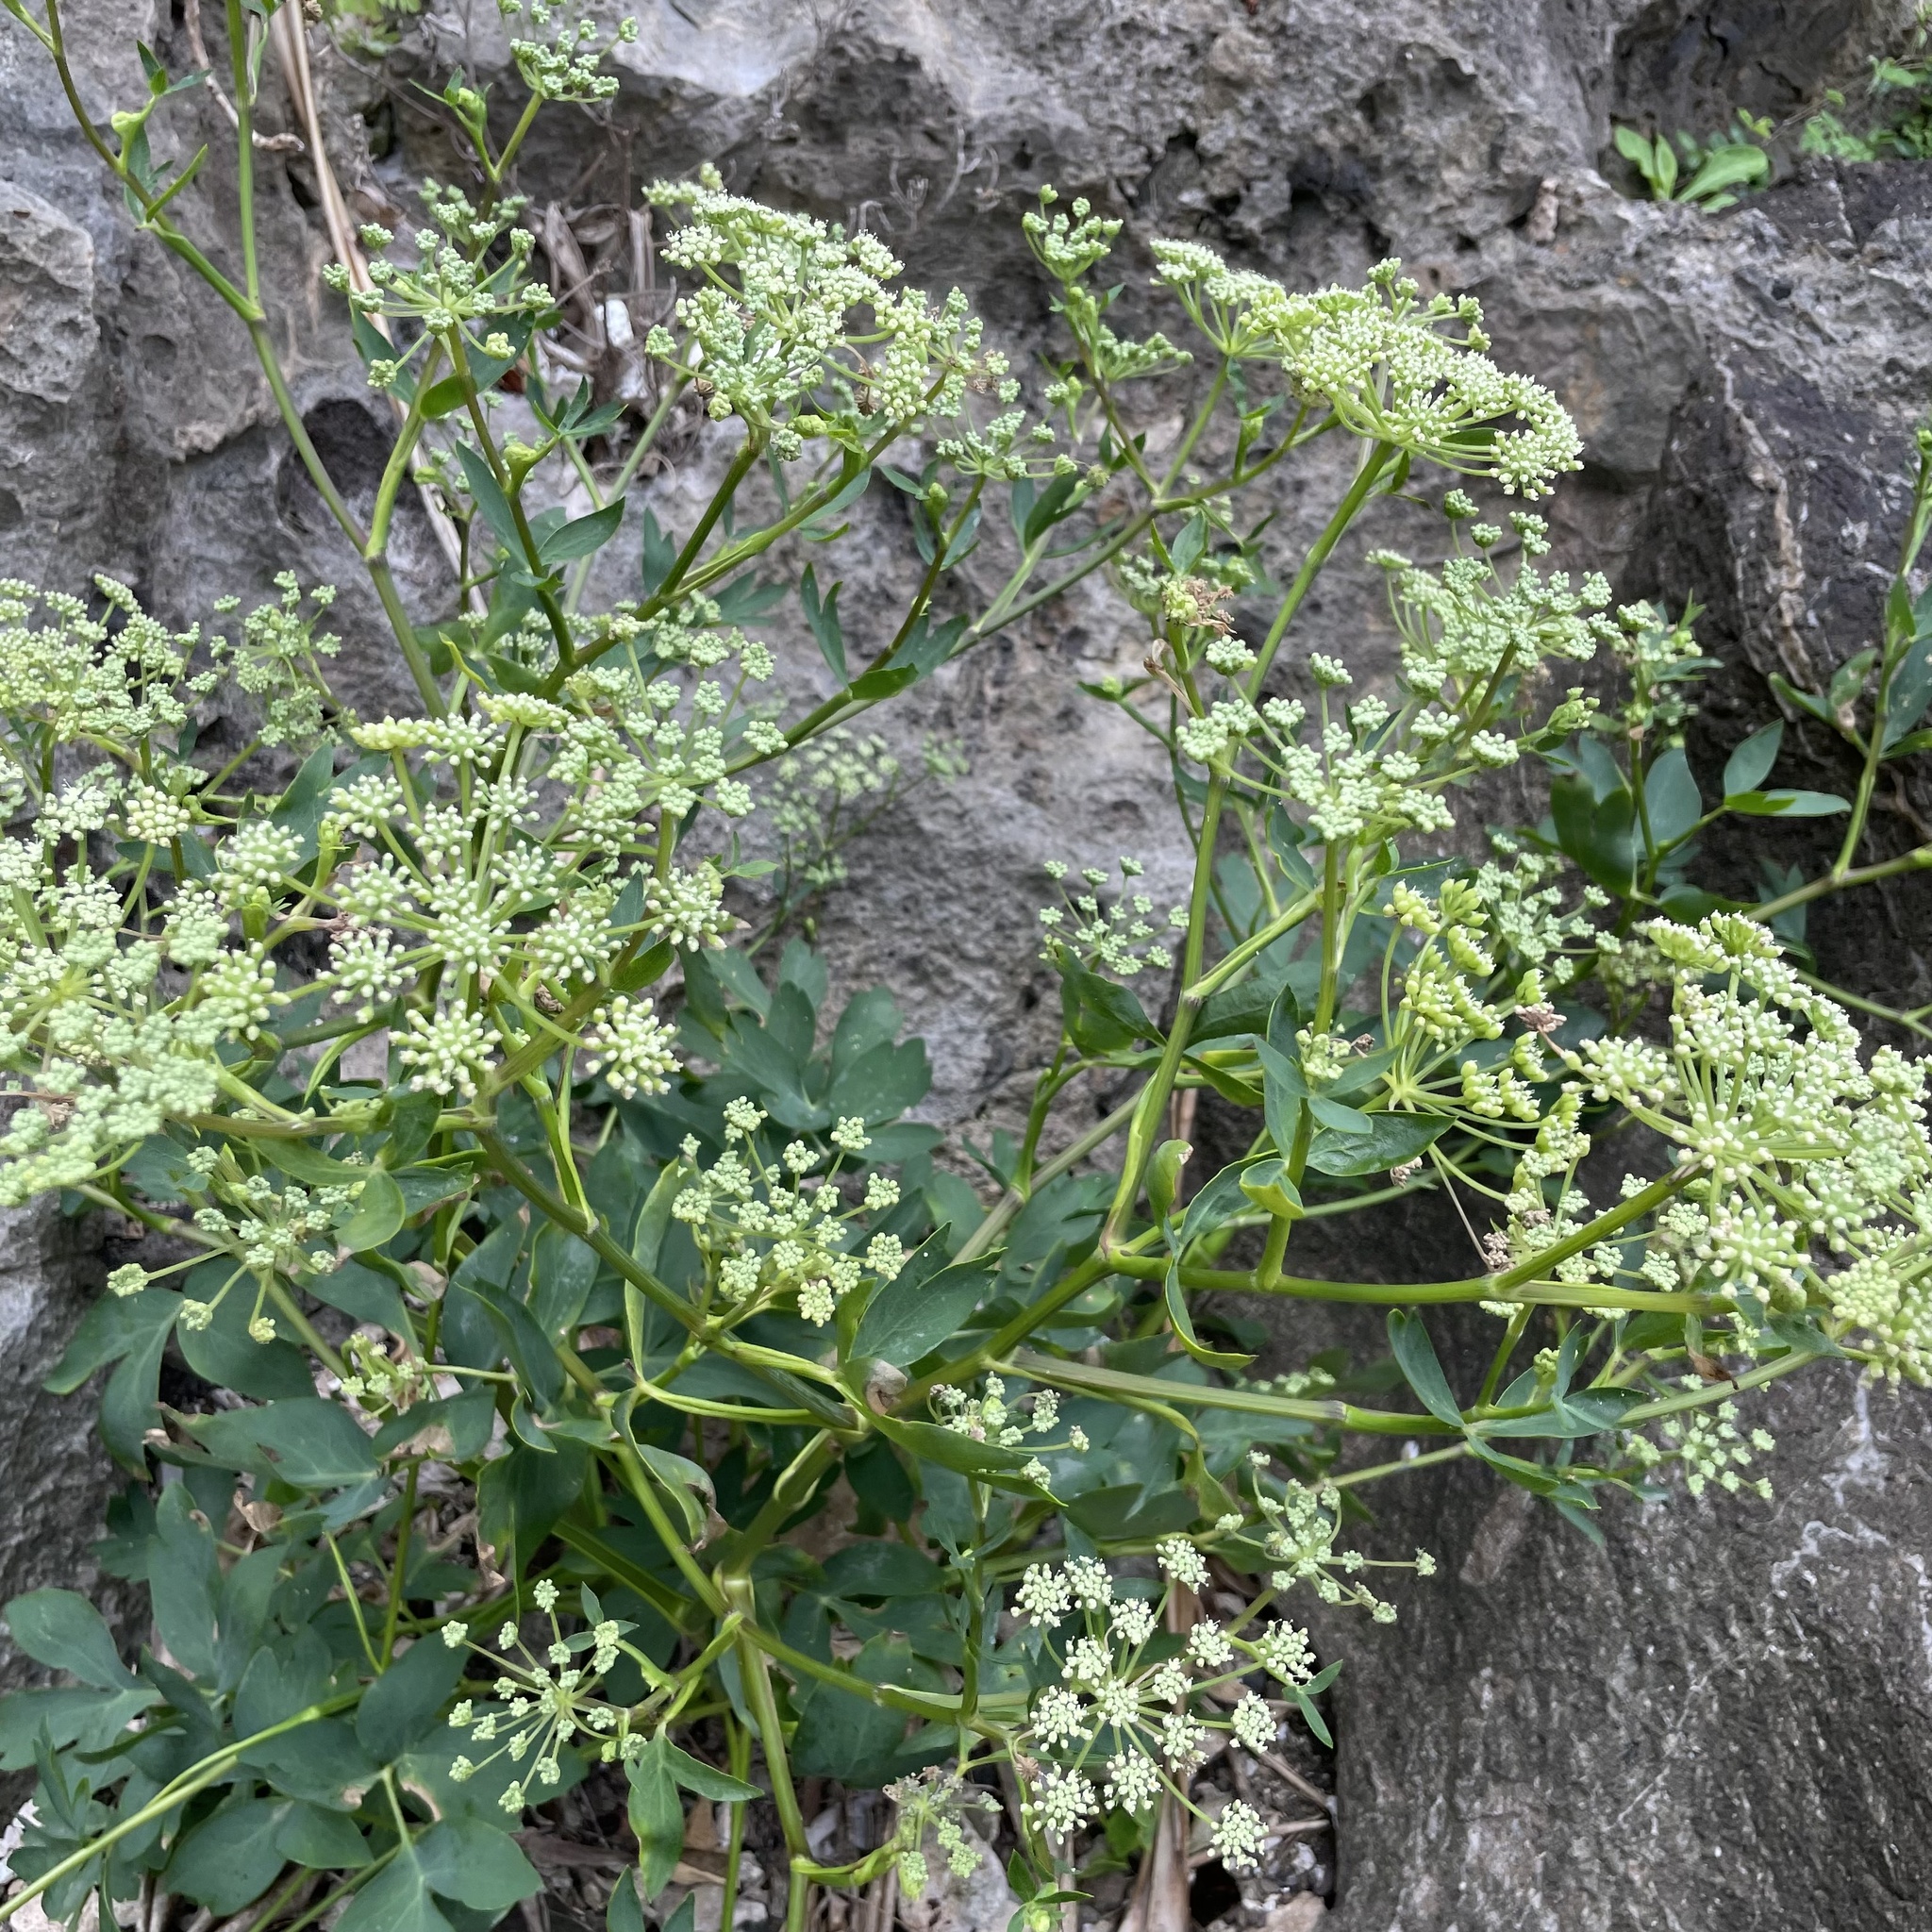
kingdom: Plantae
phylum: Tracheophyta
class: Magnoliopsida
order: Apiales
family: Apiaceae
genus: Peucedanum
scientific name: Peucedanum japonicum
